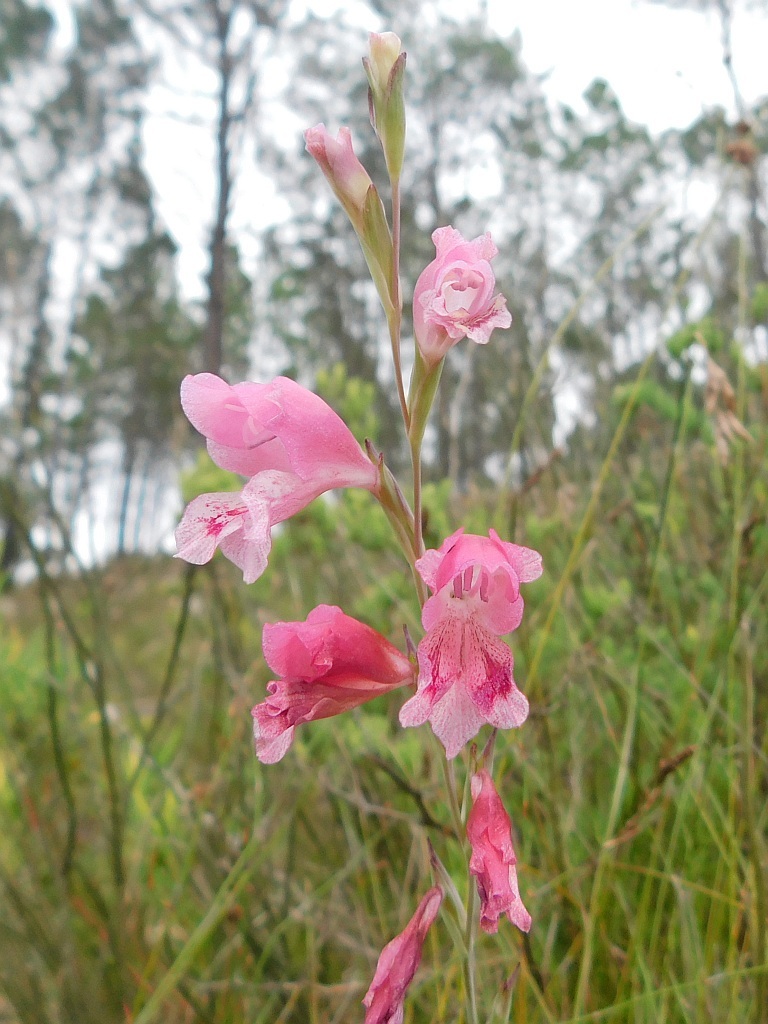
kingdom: Plantae
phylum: Tracheophyta
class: Liliopsida
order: Asparagales
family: Iridaceae
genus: Gladiolus
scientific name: Gladiolus brevifolius
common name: March pypie
